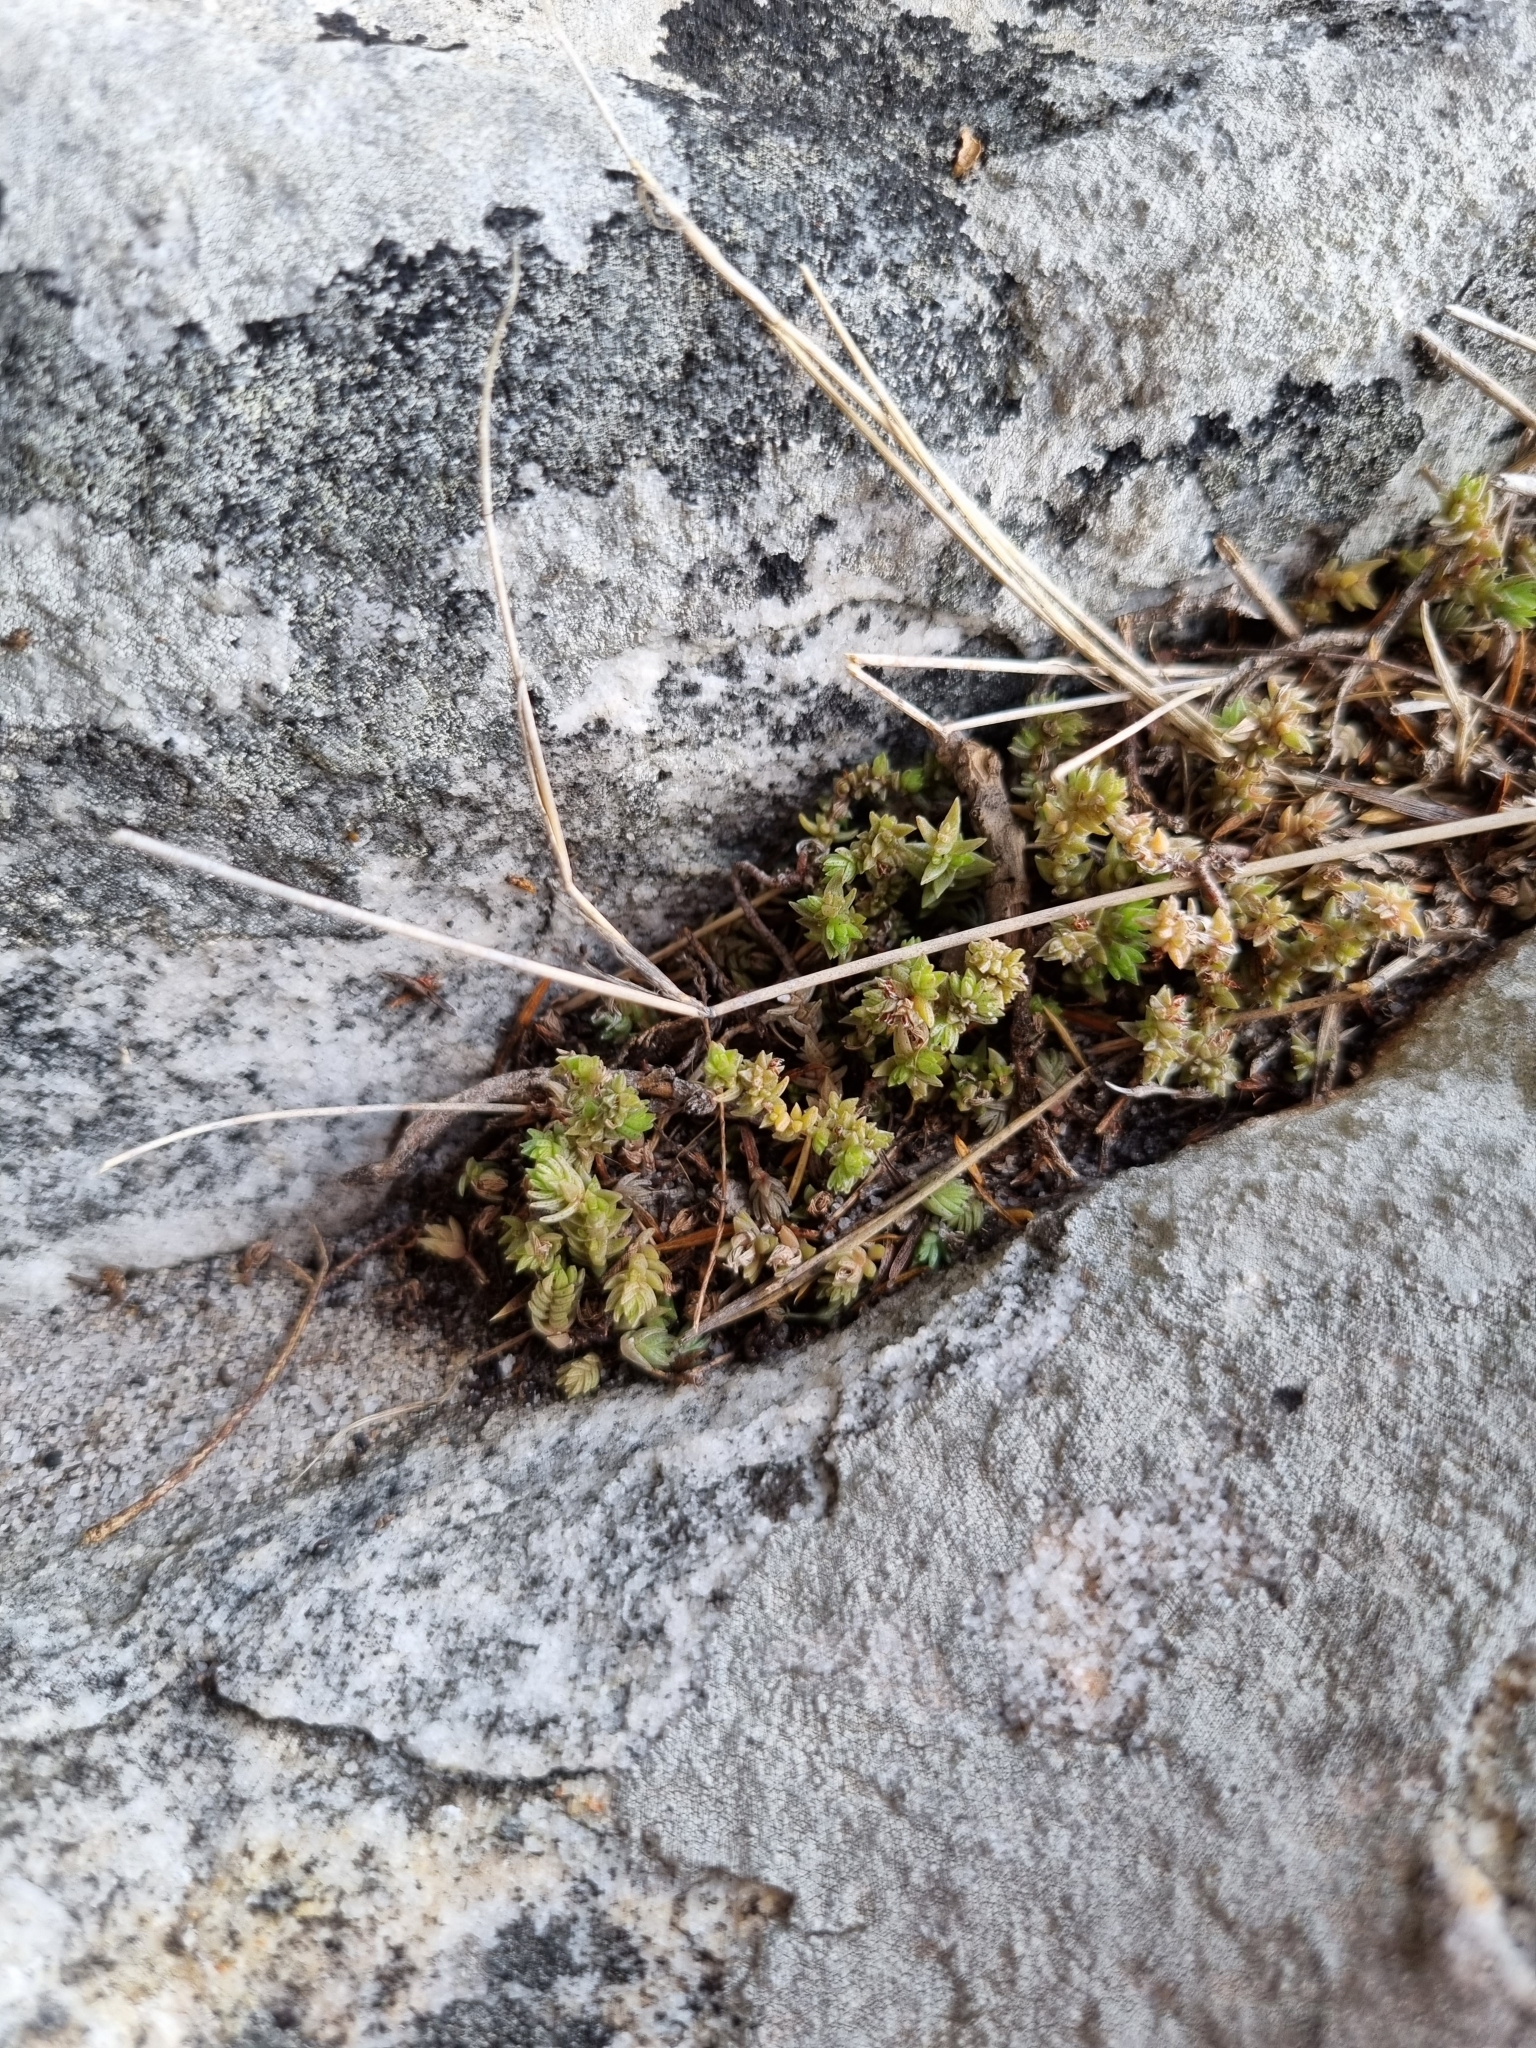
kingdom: Plantae
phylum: Tracheophyta
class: Magnoliopsida
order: Saxifragales
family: Crassulaceae
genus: Crassula
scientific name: Crassula lanceolata
